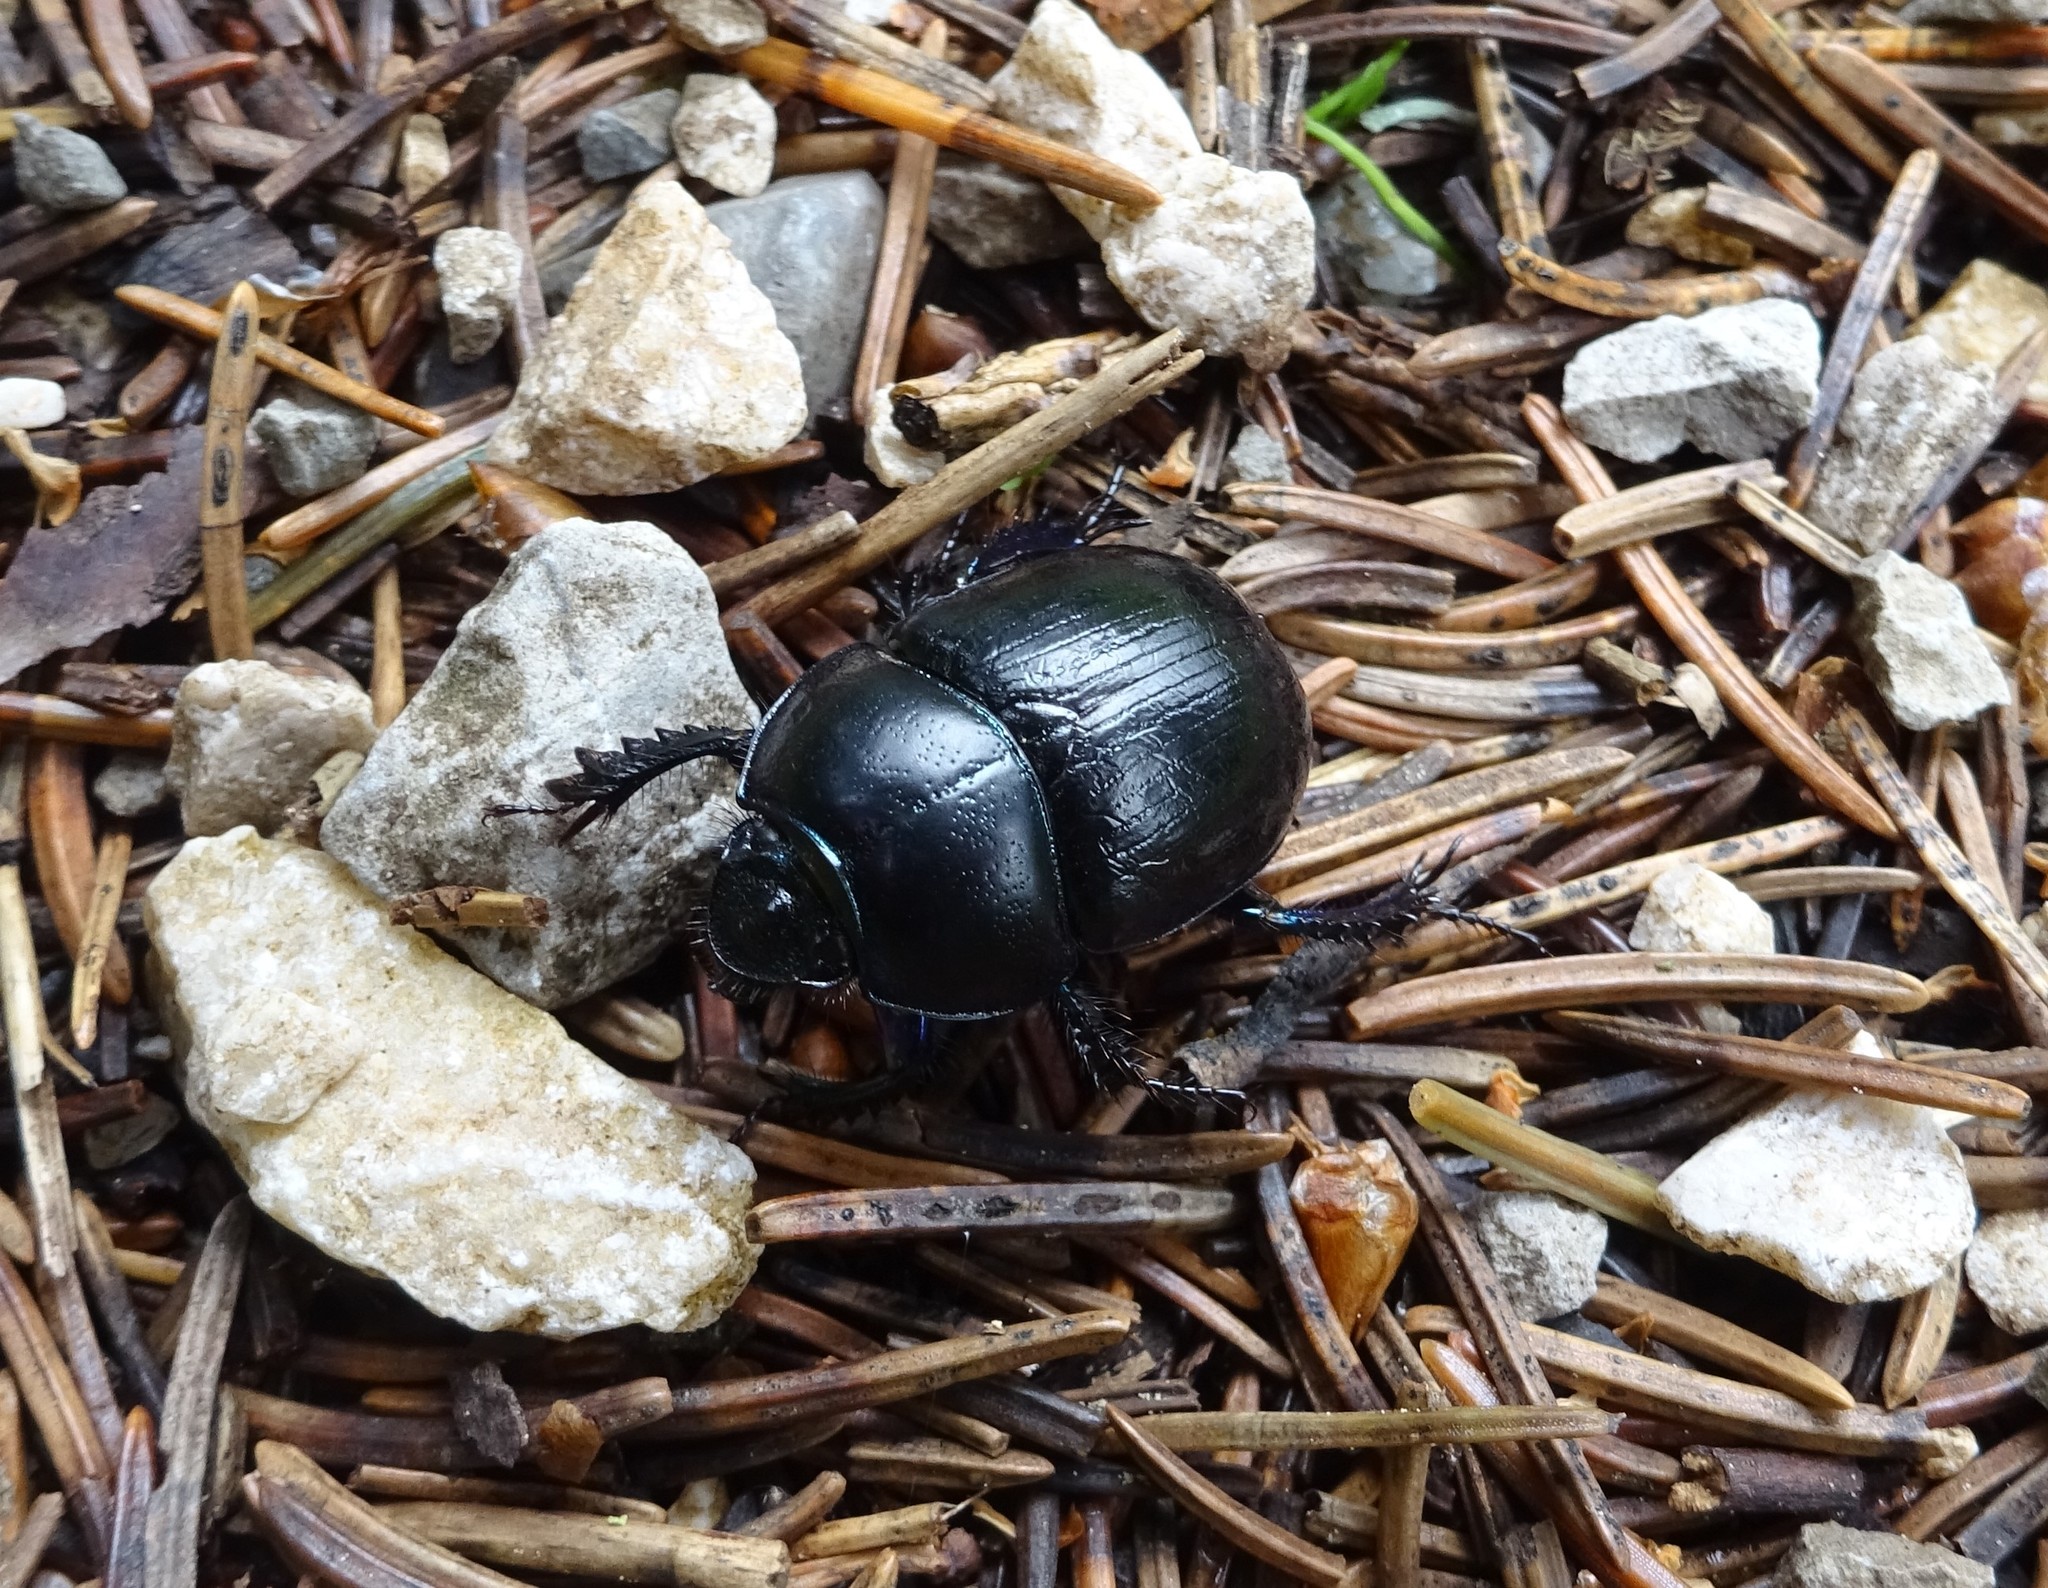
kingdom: Animalia
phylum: Arthropoda
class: Insecta
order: Coleoptera
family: Geotrupidae
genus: Anoplotrupes
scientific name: Anoplotrupes stercorosus
